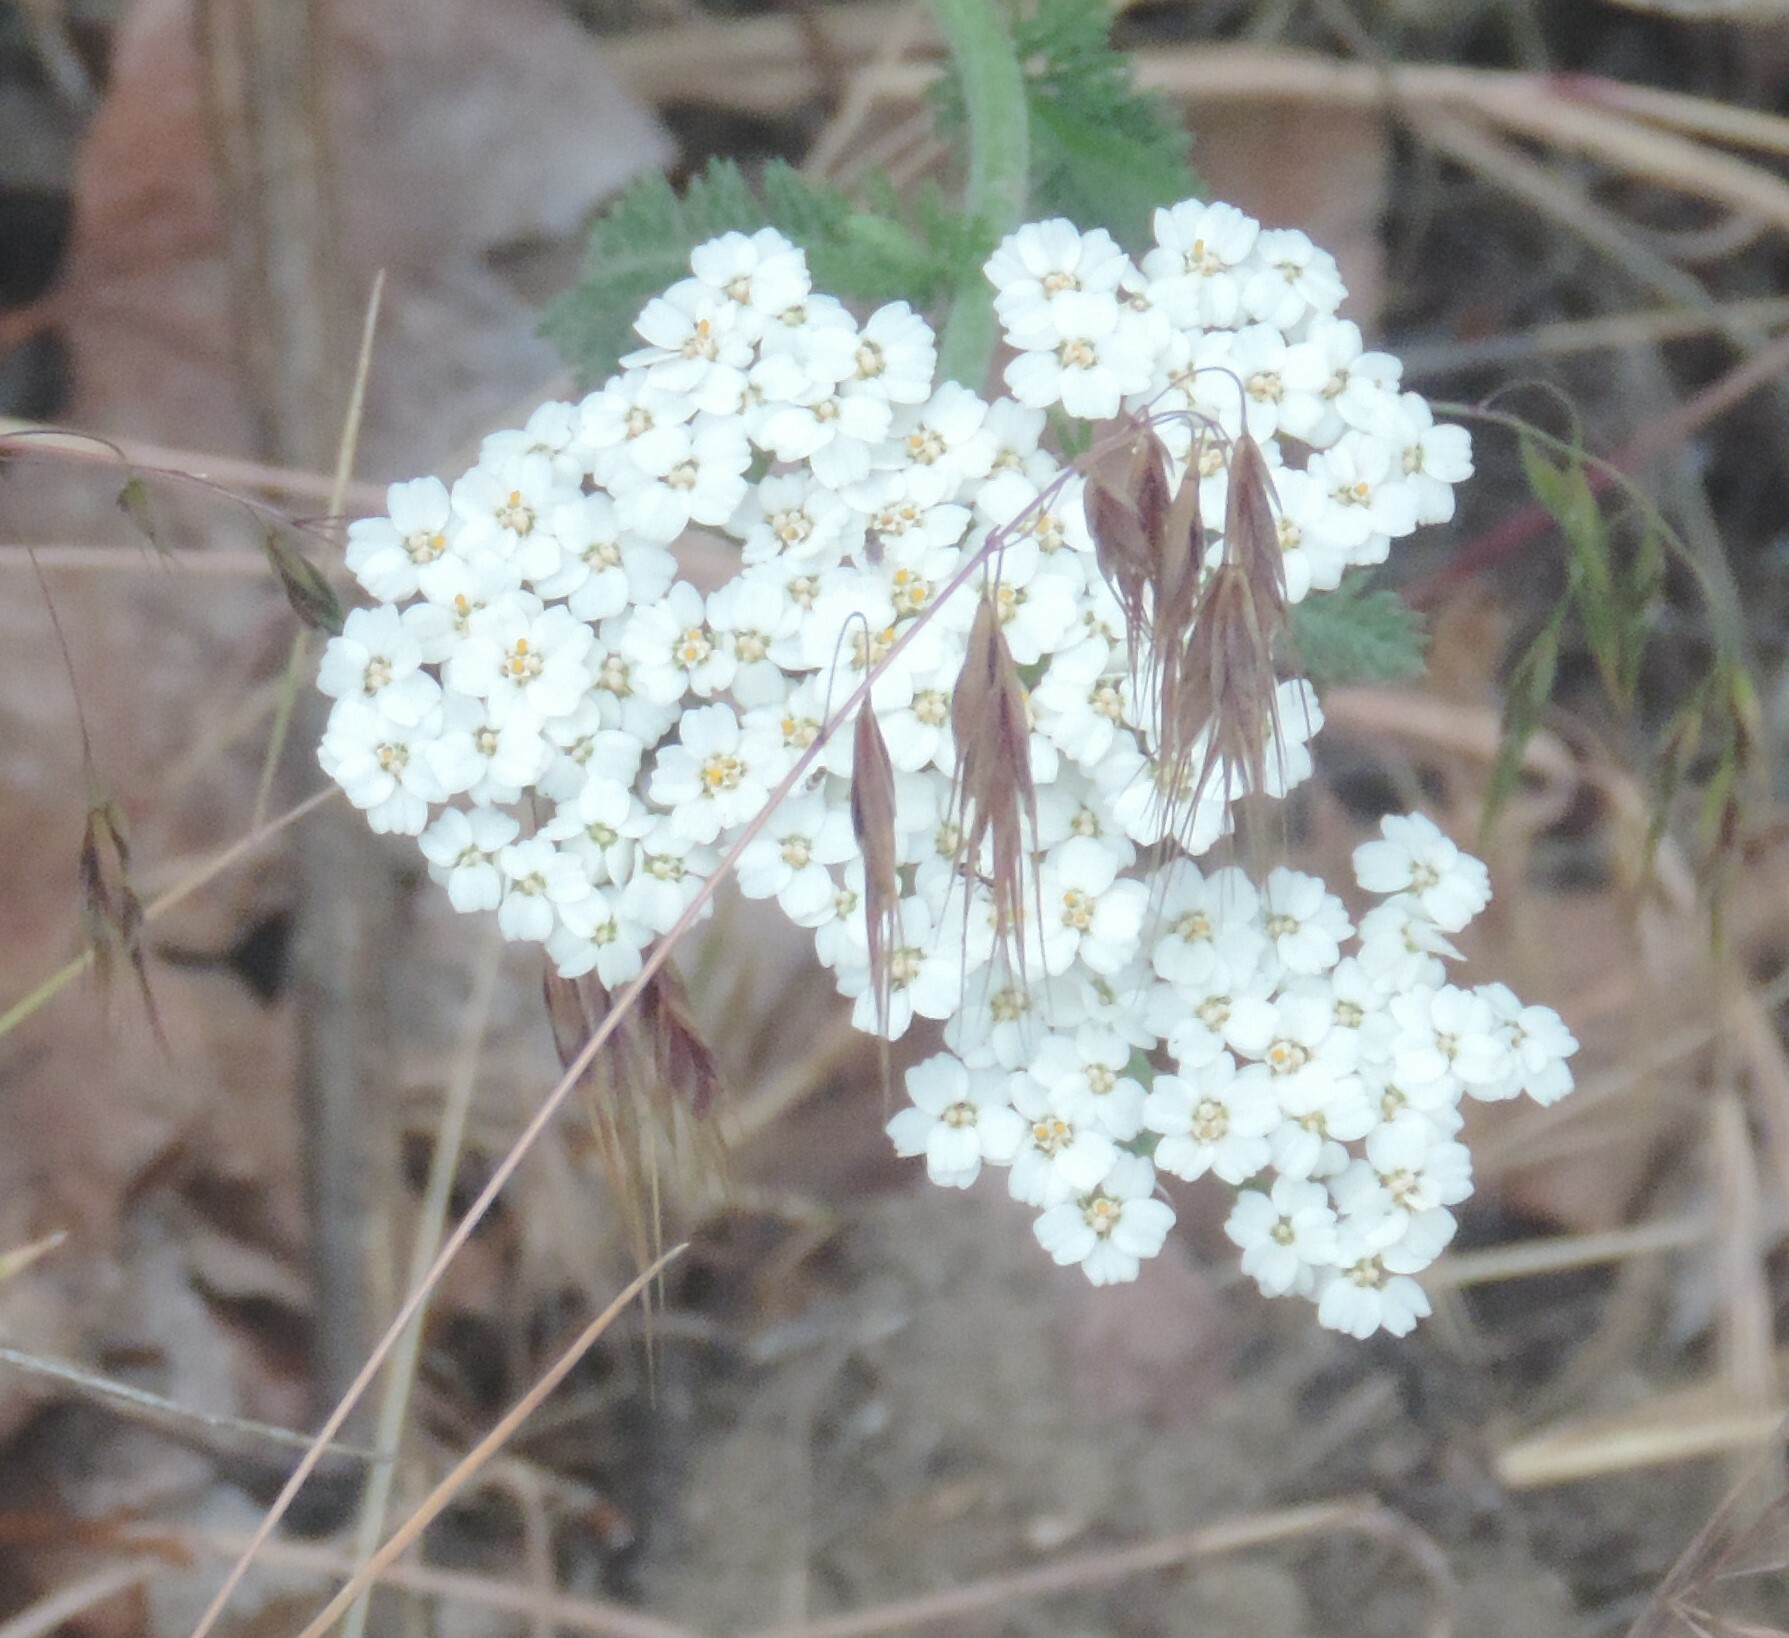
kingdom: Plantae
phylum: Tracheophyta
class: Magnoliopsida
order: Asterales
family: Asteraceae
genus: Achillea
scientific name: Achillea millefolium
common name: Yarrow
